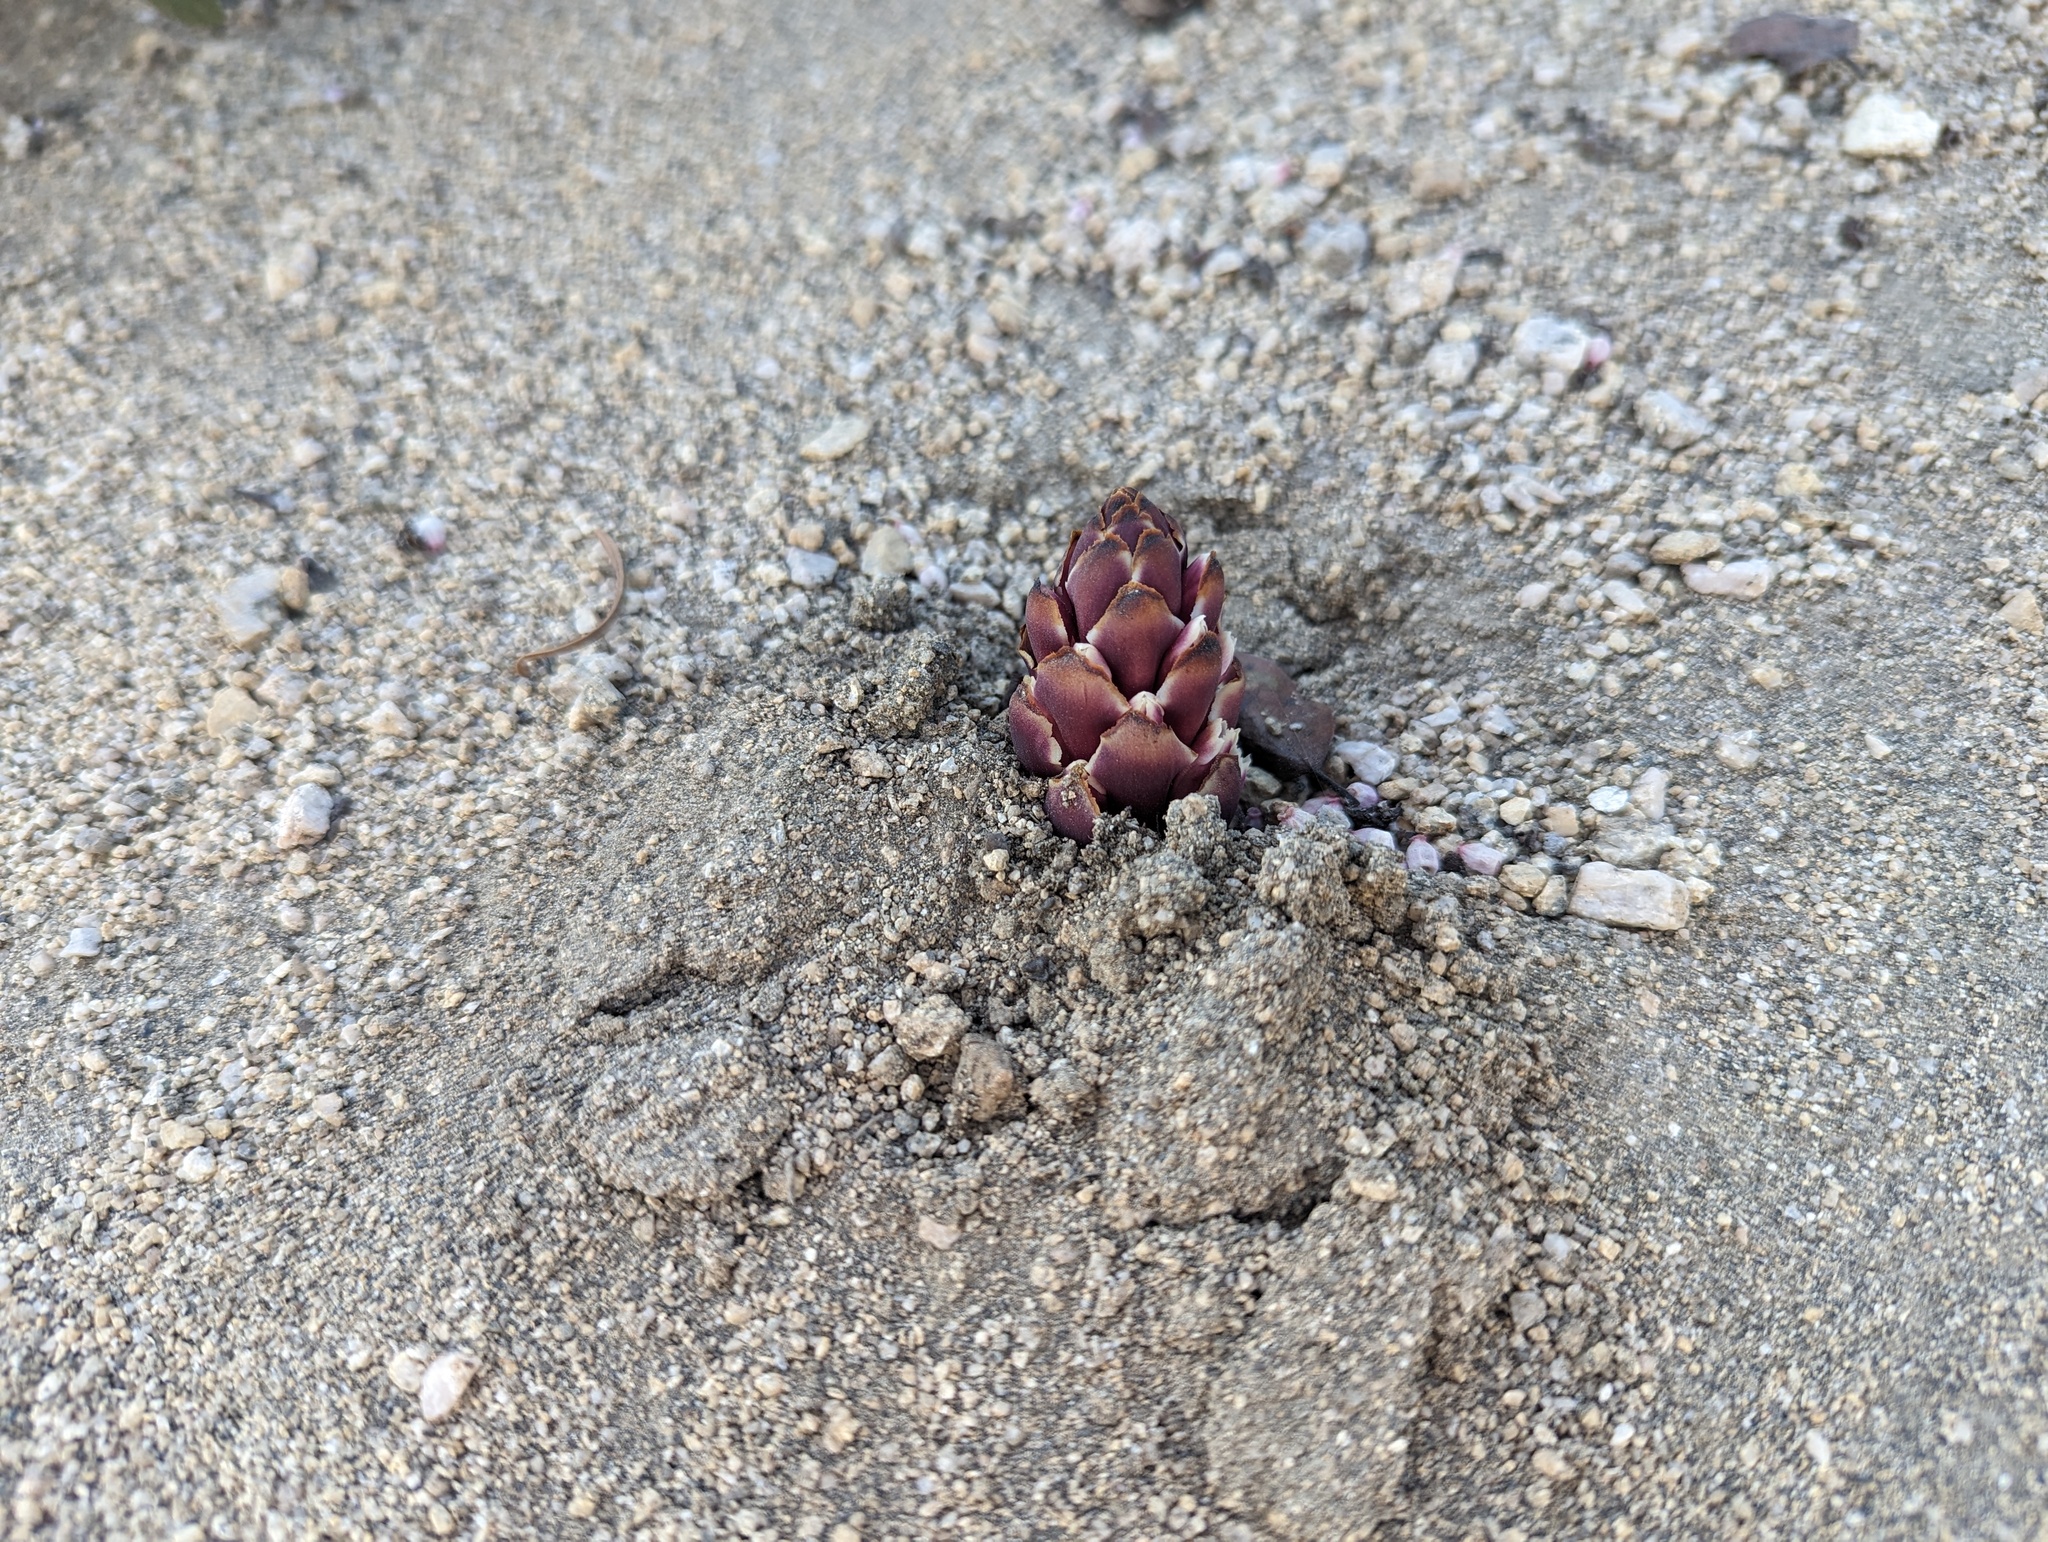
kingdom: Plantae
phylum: Tracheophyta
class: Magnoliopsida
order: Lamiales
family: Orobanchaceae
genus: Kopsiopsis
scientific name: Kopsiopsis strobilacea
